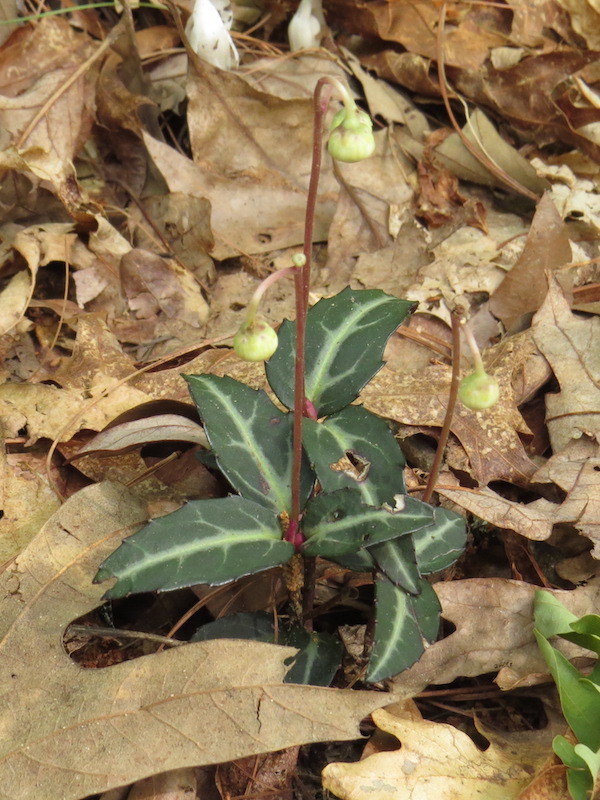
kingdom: Plantae
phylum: Tracheophyta
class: Magnoliopsida
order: Ericales
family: Ericaceae
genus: Chimaphila
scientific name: Chimaphila maculata
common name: Spotted pipsissewa
